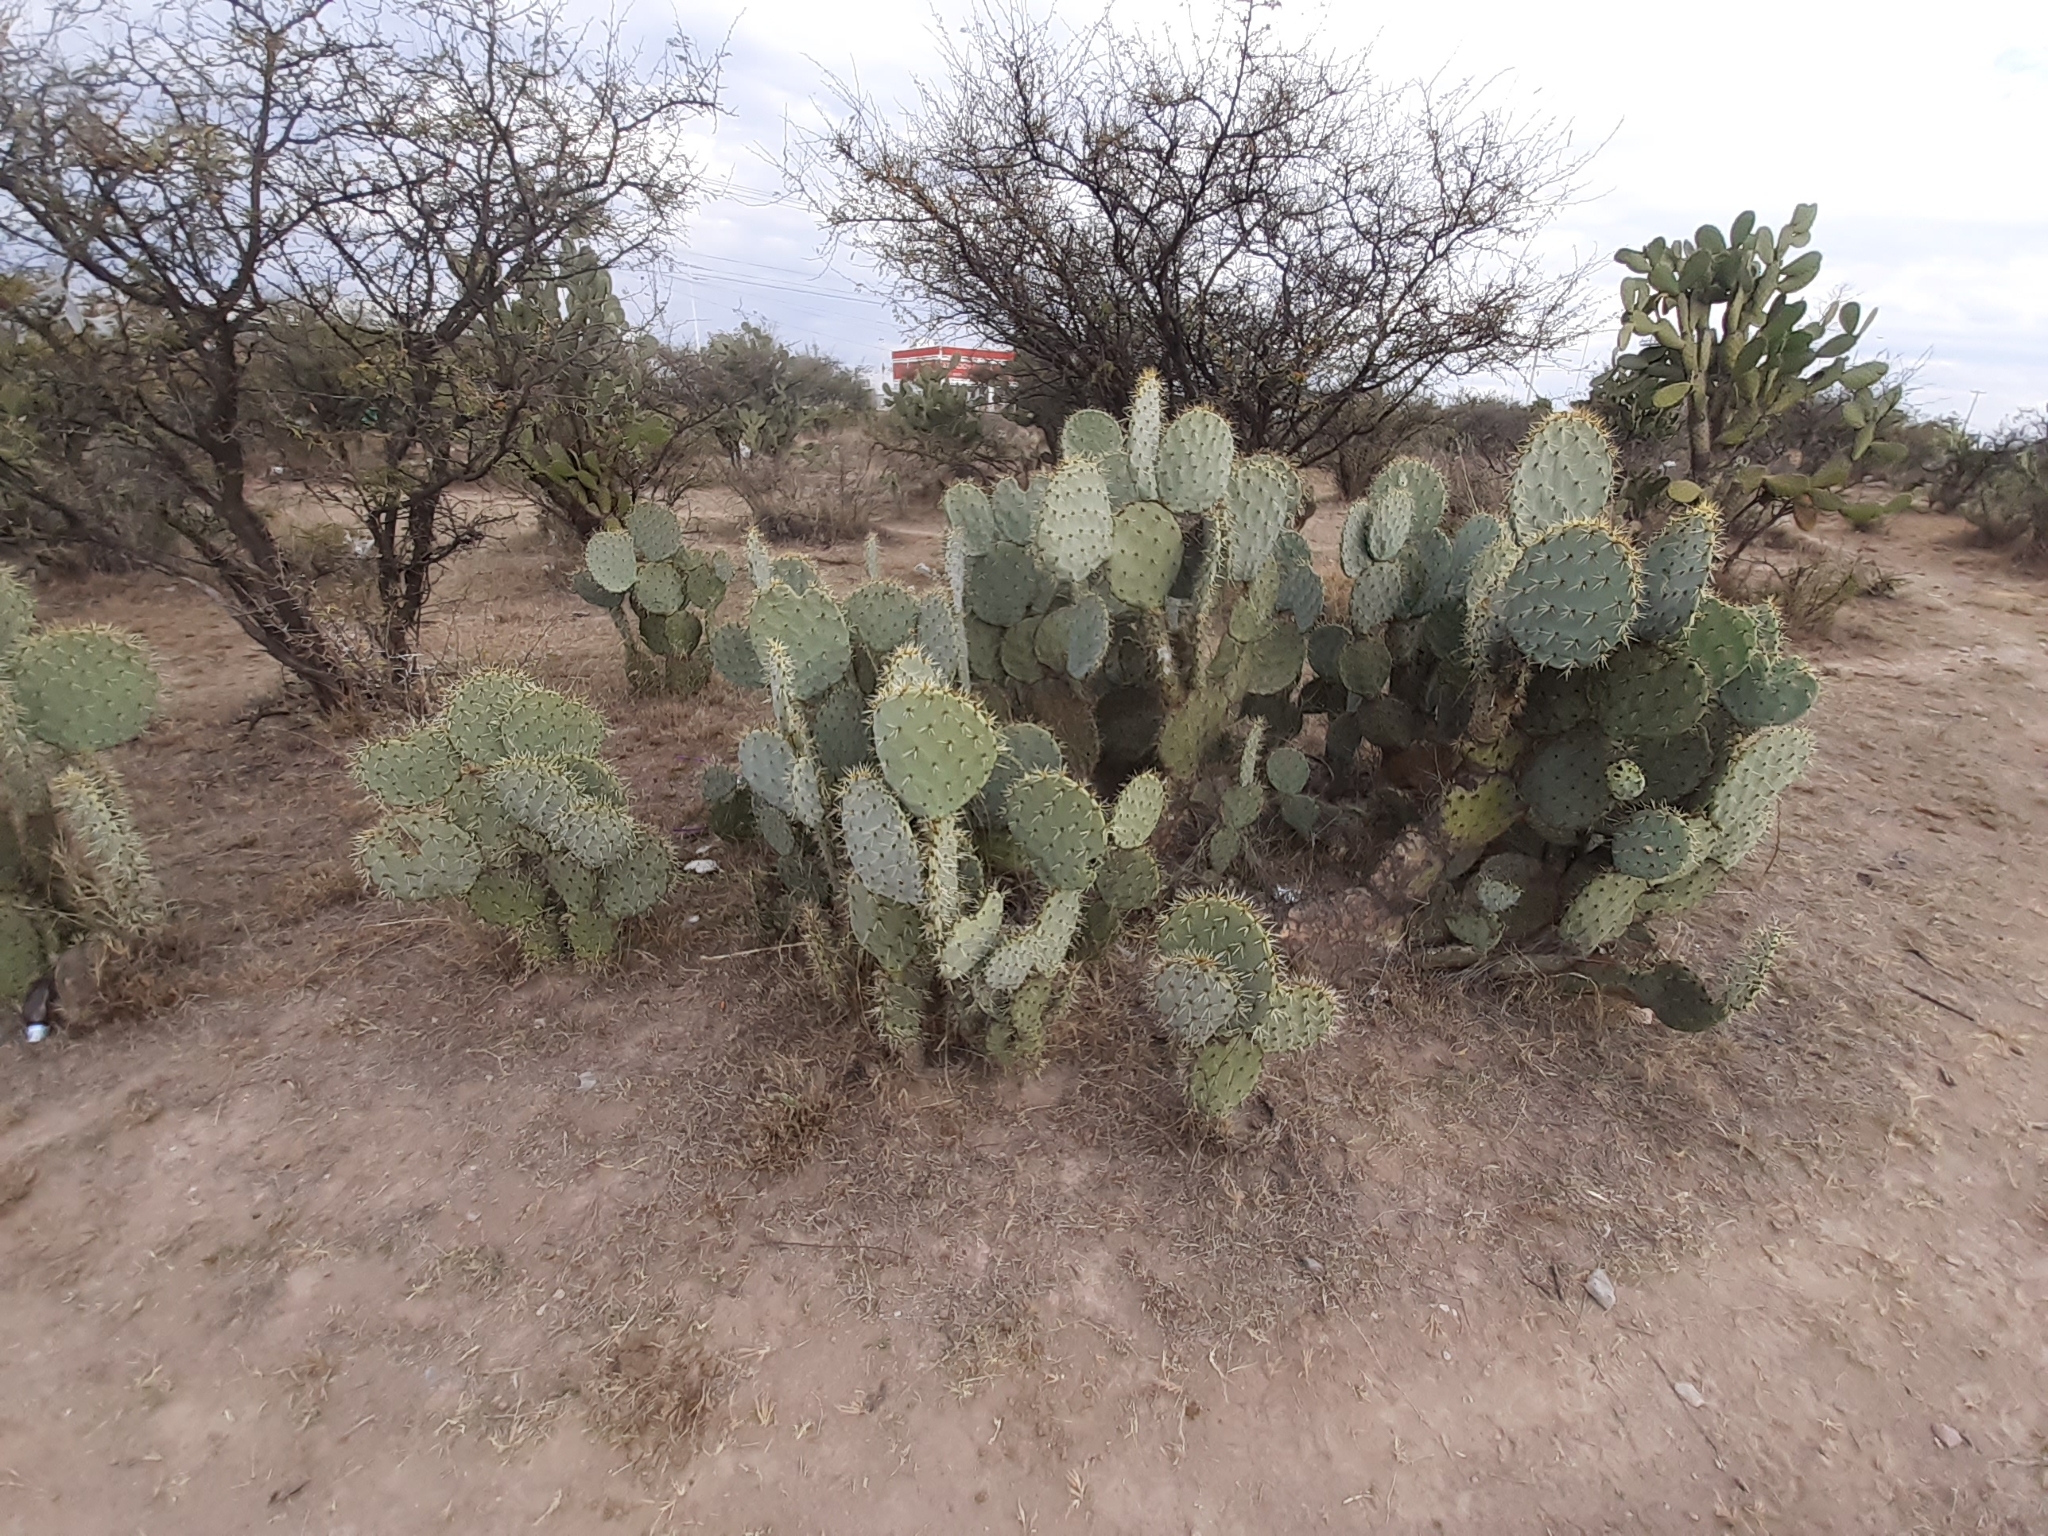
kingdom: Plantae
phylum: Tracheophyta
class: Magnoliopsida
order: Caryophyllales
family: Cactaceae
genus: Opuntia
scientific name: Opuntia robusta
